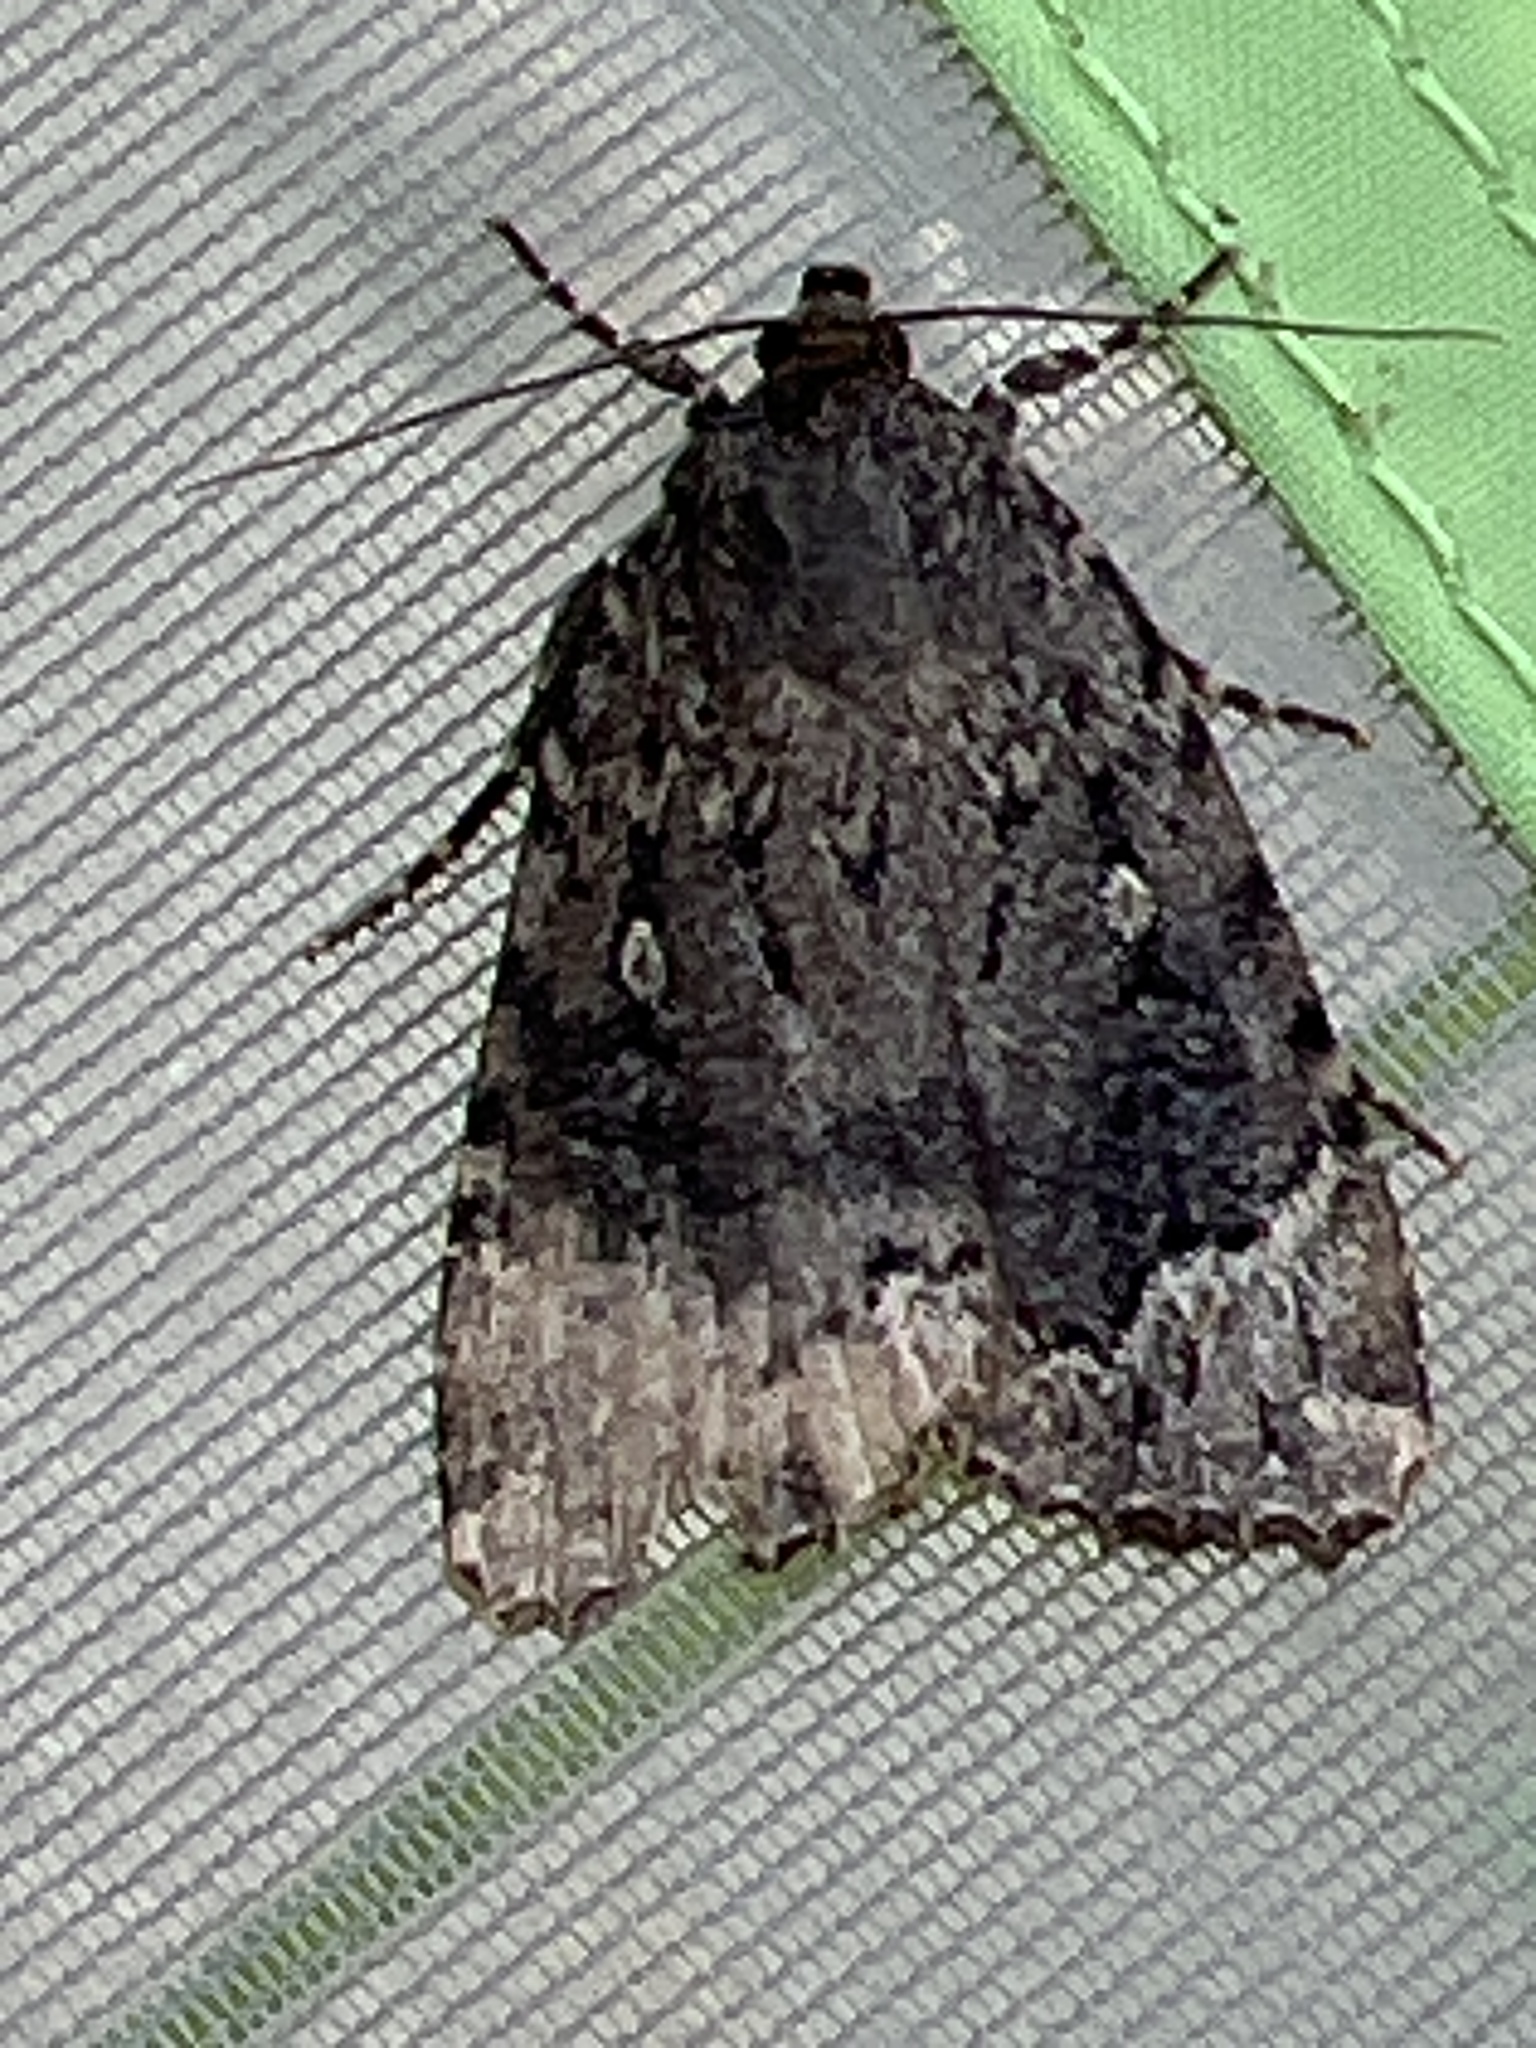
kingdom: Animalia
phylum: Arthropoda
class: Insecta
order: Lepidoptera
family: Noctuidae
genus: Amphipyra
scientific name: Amphipyra pyramidoides
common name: American copper underwing
